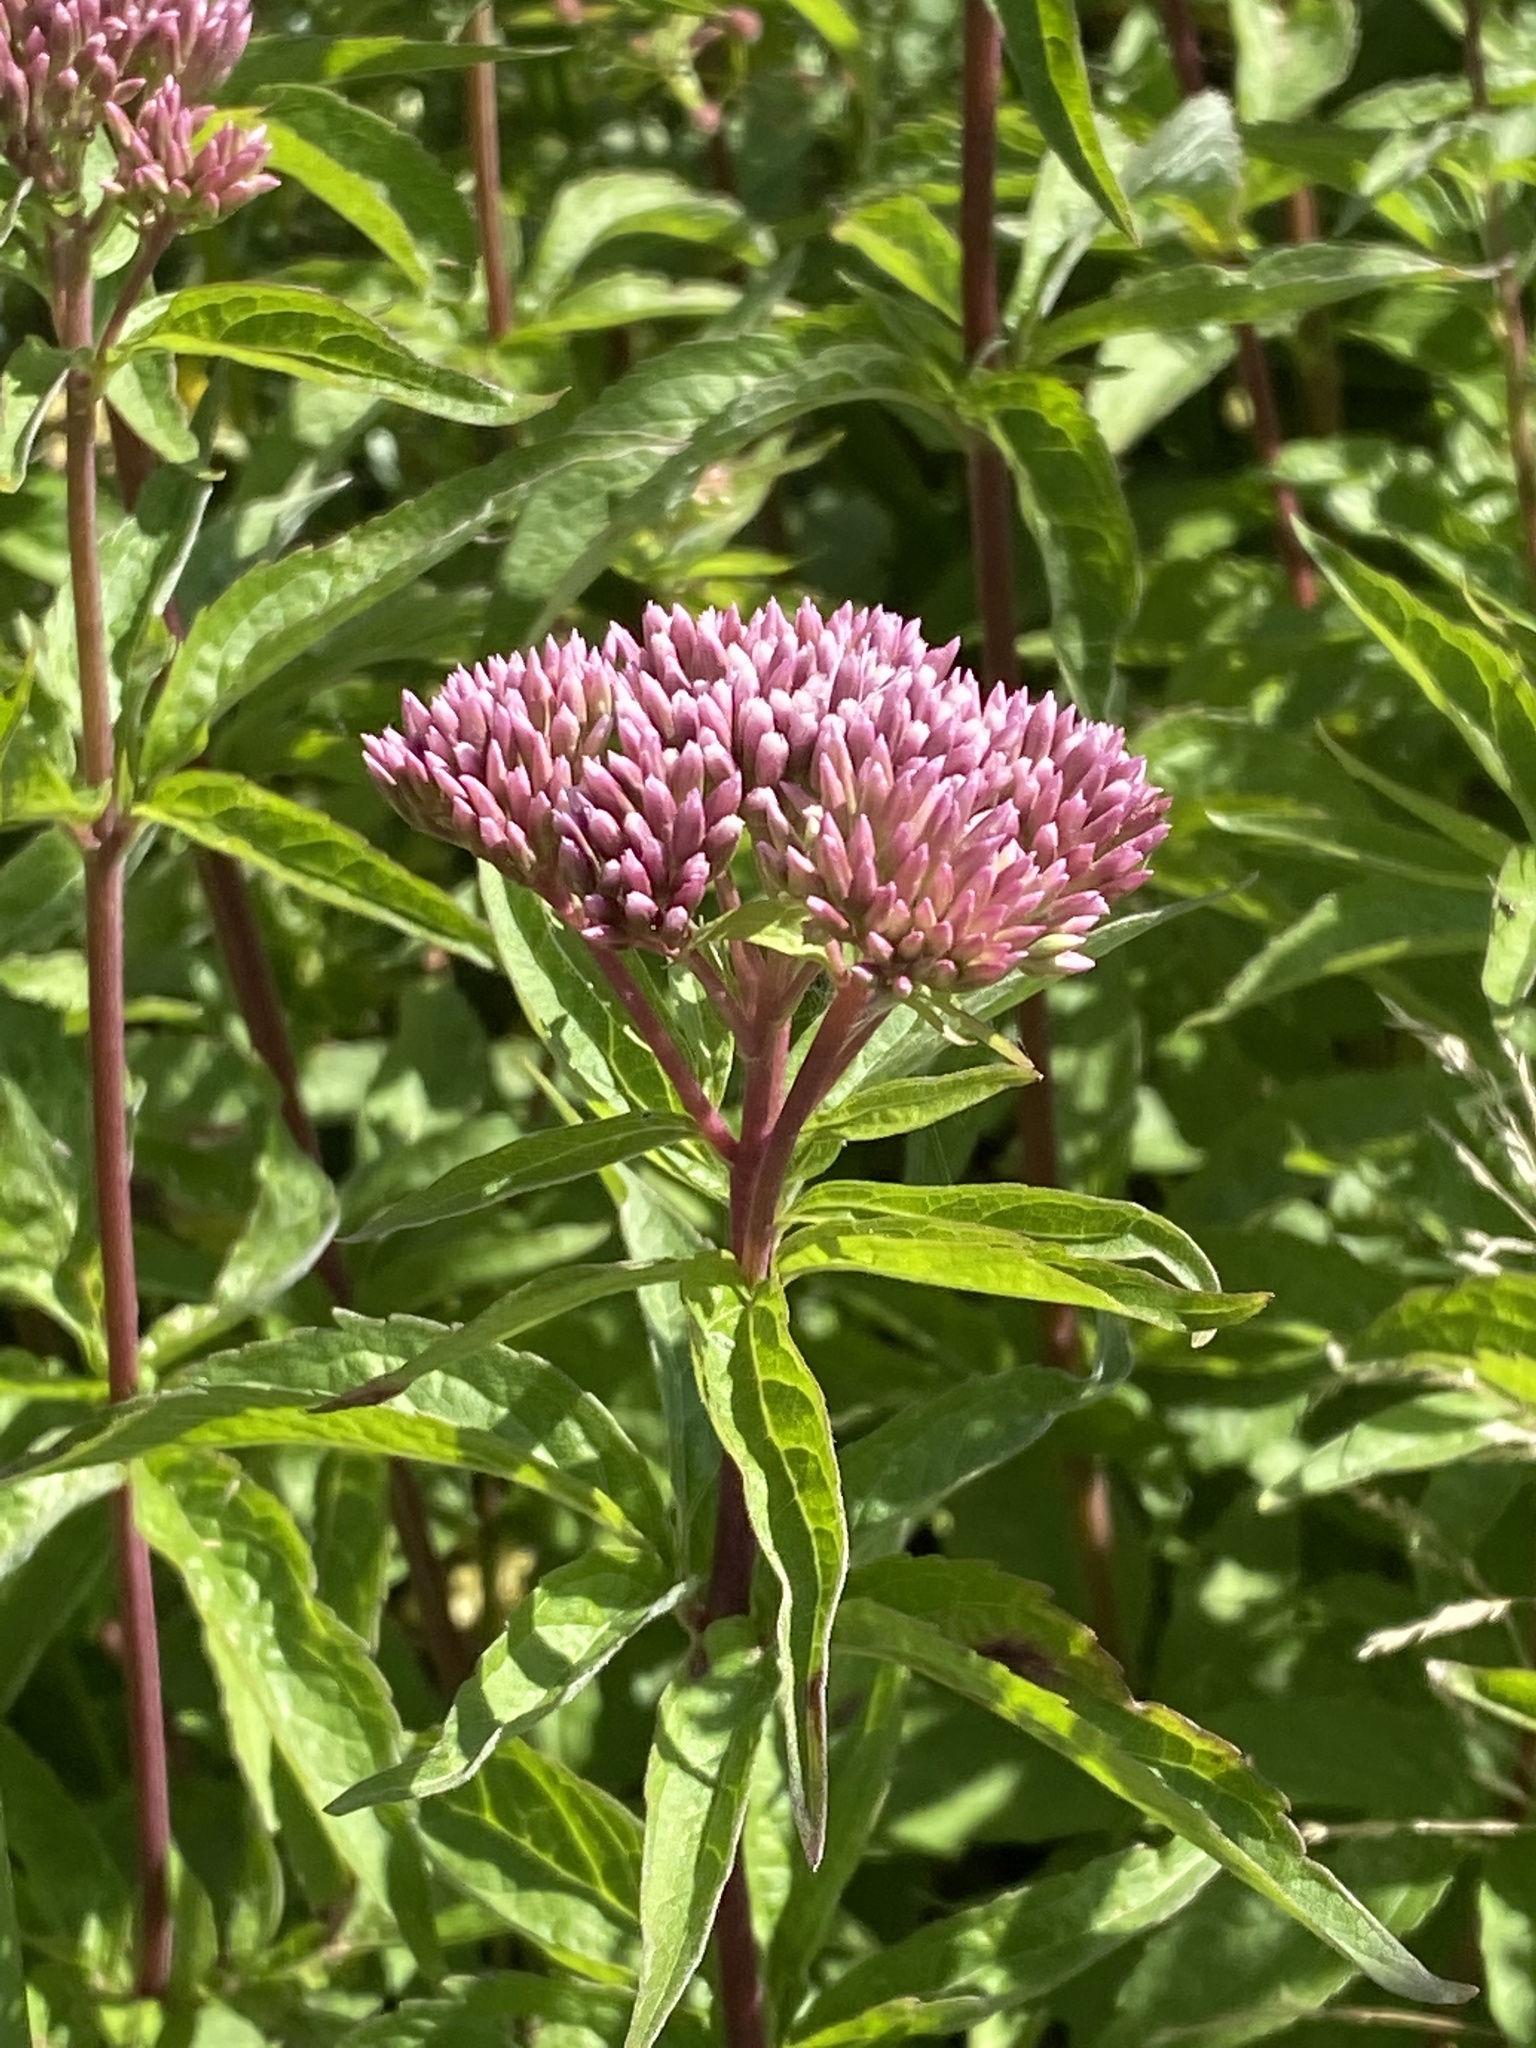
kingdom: Plantae
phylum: Tracheophyta
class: Magnoliopsida
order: Asterales
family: Asteraceae
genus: Eupatorium
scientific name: Eupatorium cannabinum
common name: Hemp-agrimony
